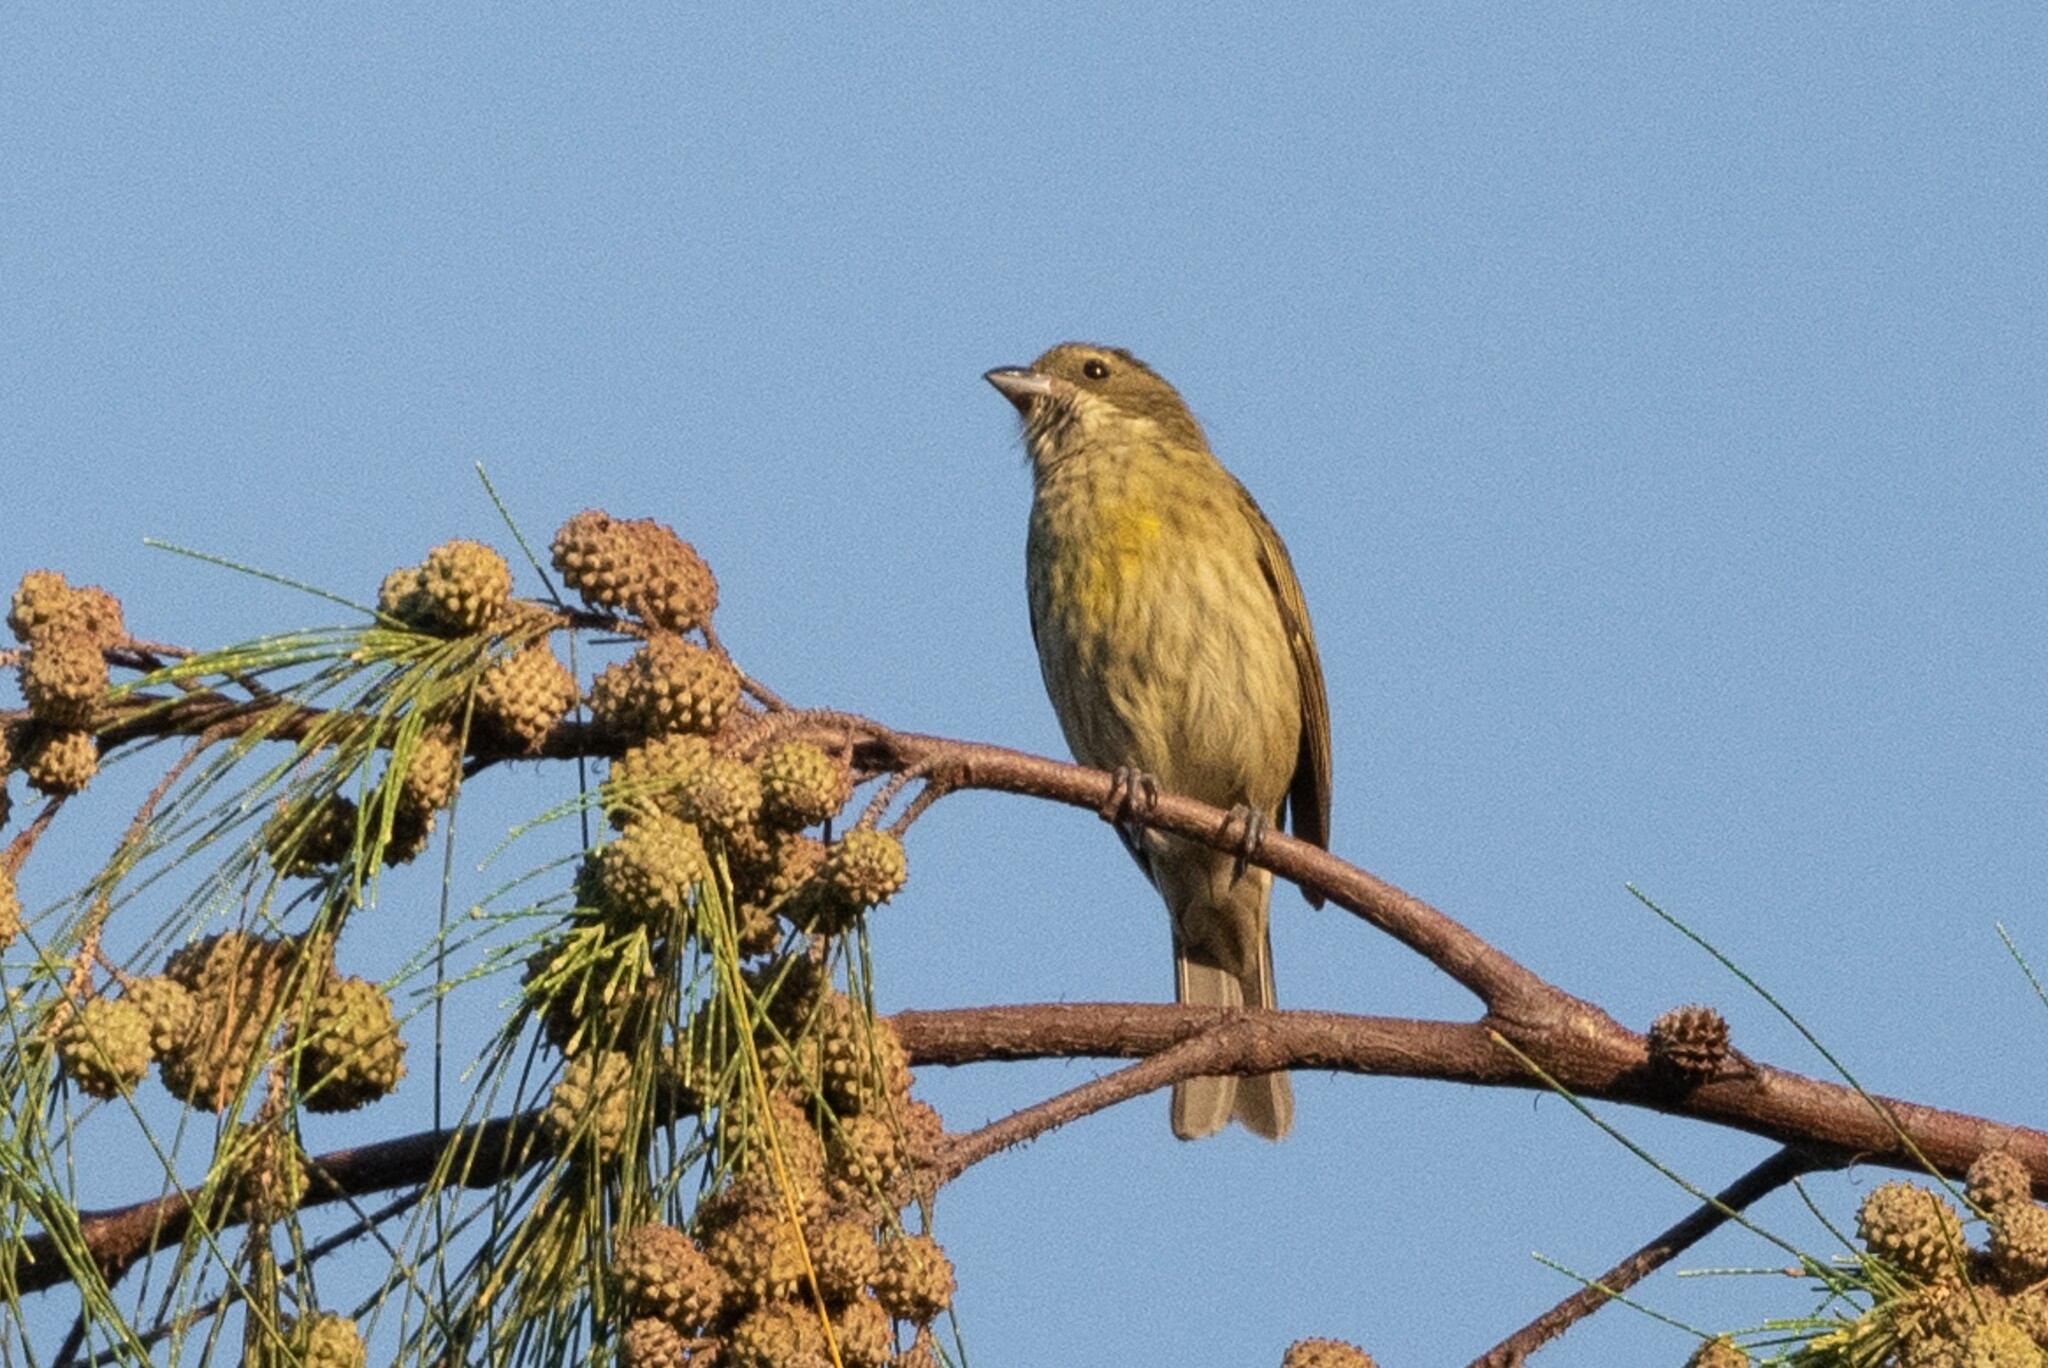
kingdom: Animalia
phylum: Chordata
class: Aves
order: Passeriformes
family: Spindalidae
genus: Spindalis
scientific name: Spindalis portoricensis
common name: Puerto rican spindalis
